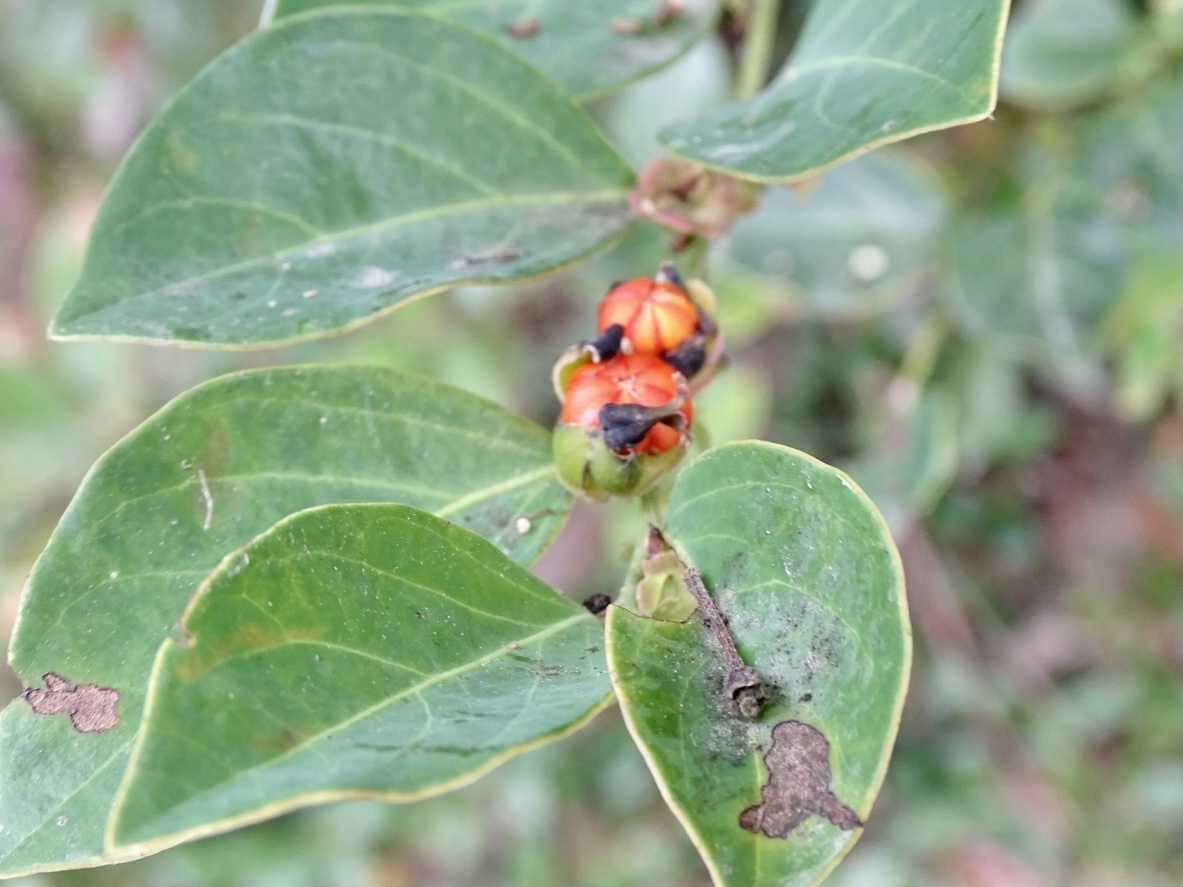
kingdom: Plantae
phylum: Tracheophyta
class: Magnoliopsida
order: Malpighiales
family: Phyllanthaceae
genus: Breynia
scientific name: Breynia fruticosa
